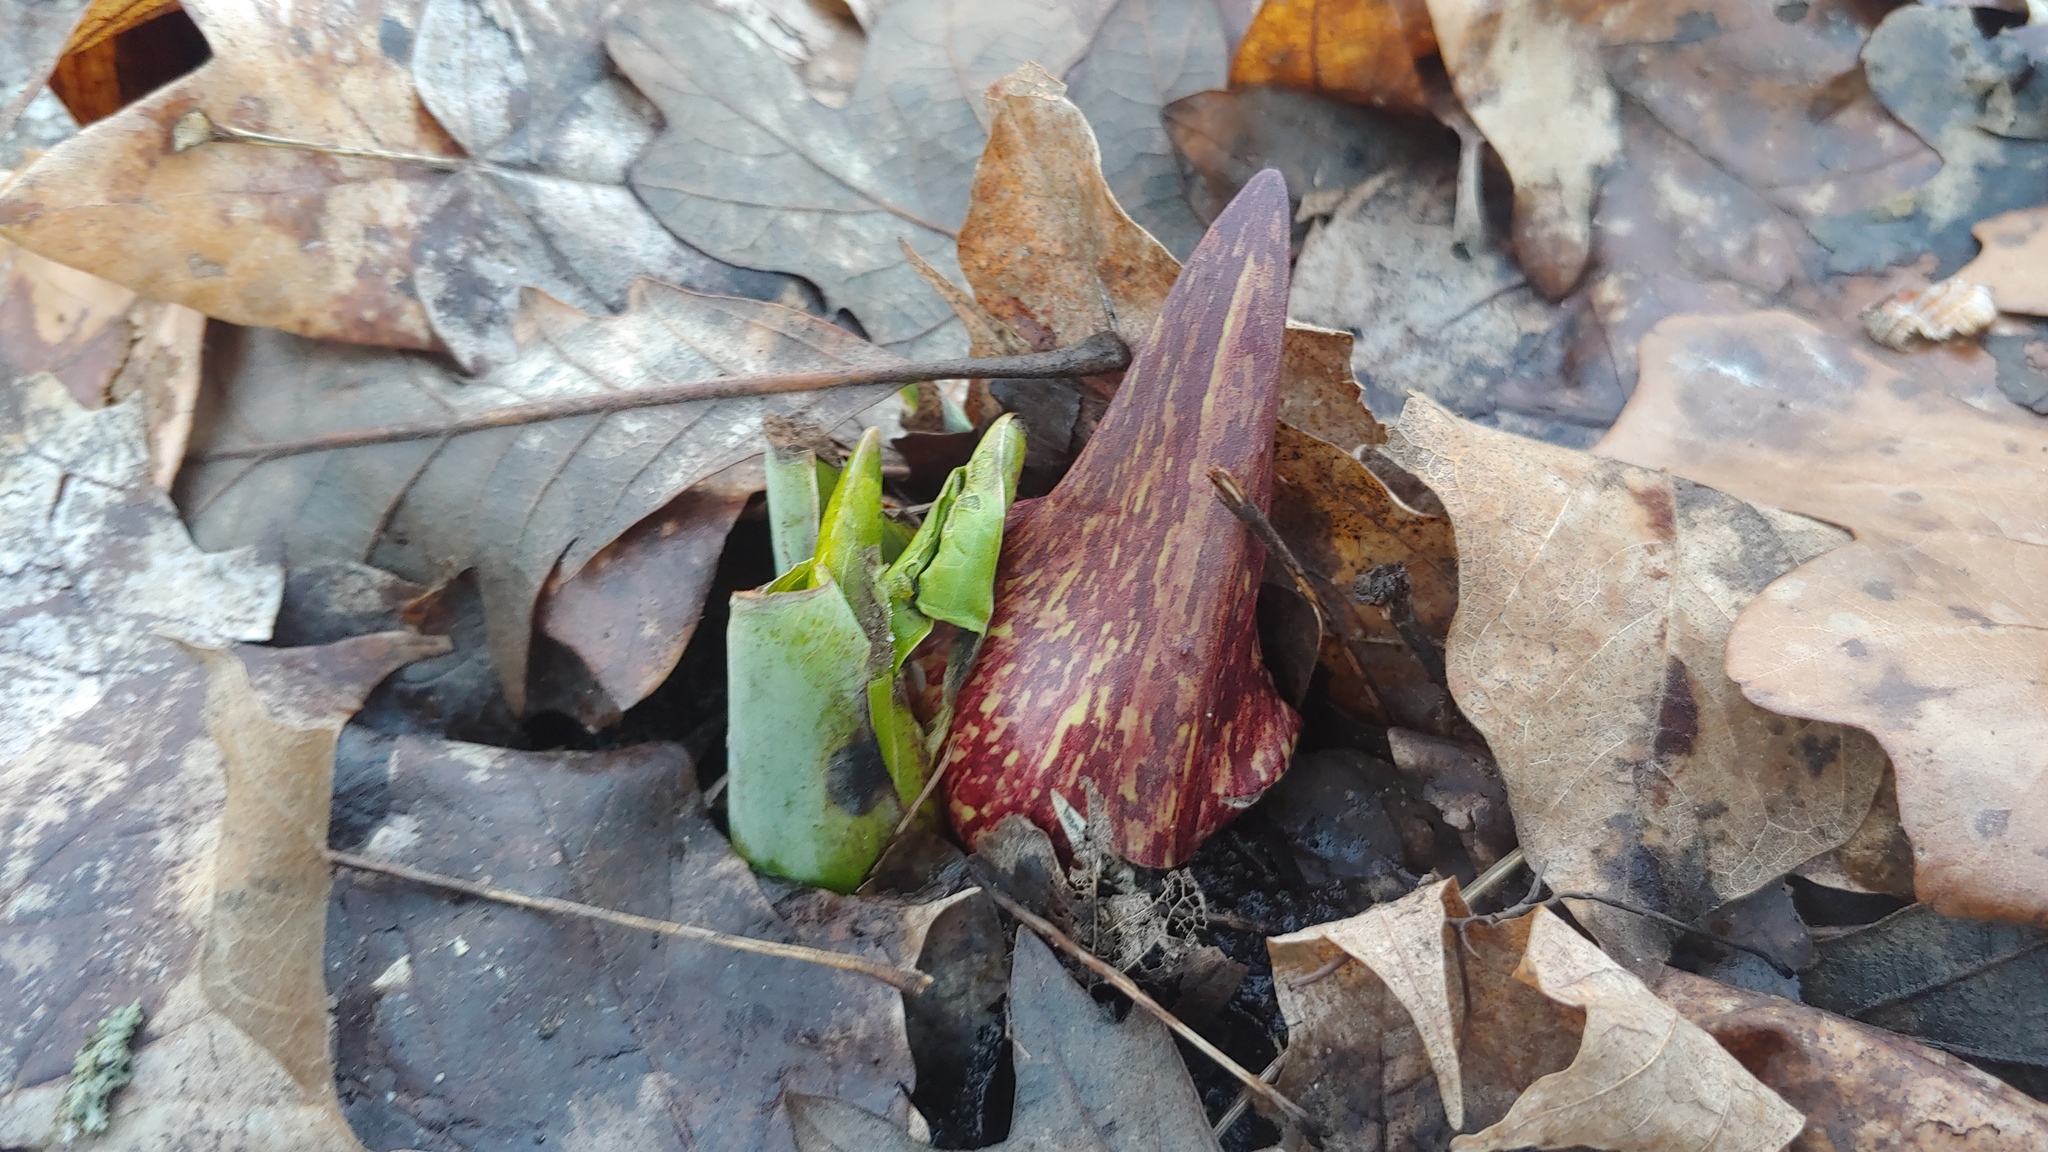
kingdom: Plantae
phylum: Tracheophyta
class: Liliopsida
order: Alismatales
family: Araceae
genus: Symplocarpus
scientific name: Symplocarpus foetidus
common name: Eastern skunk cabbage
